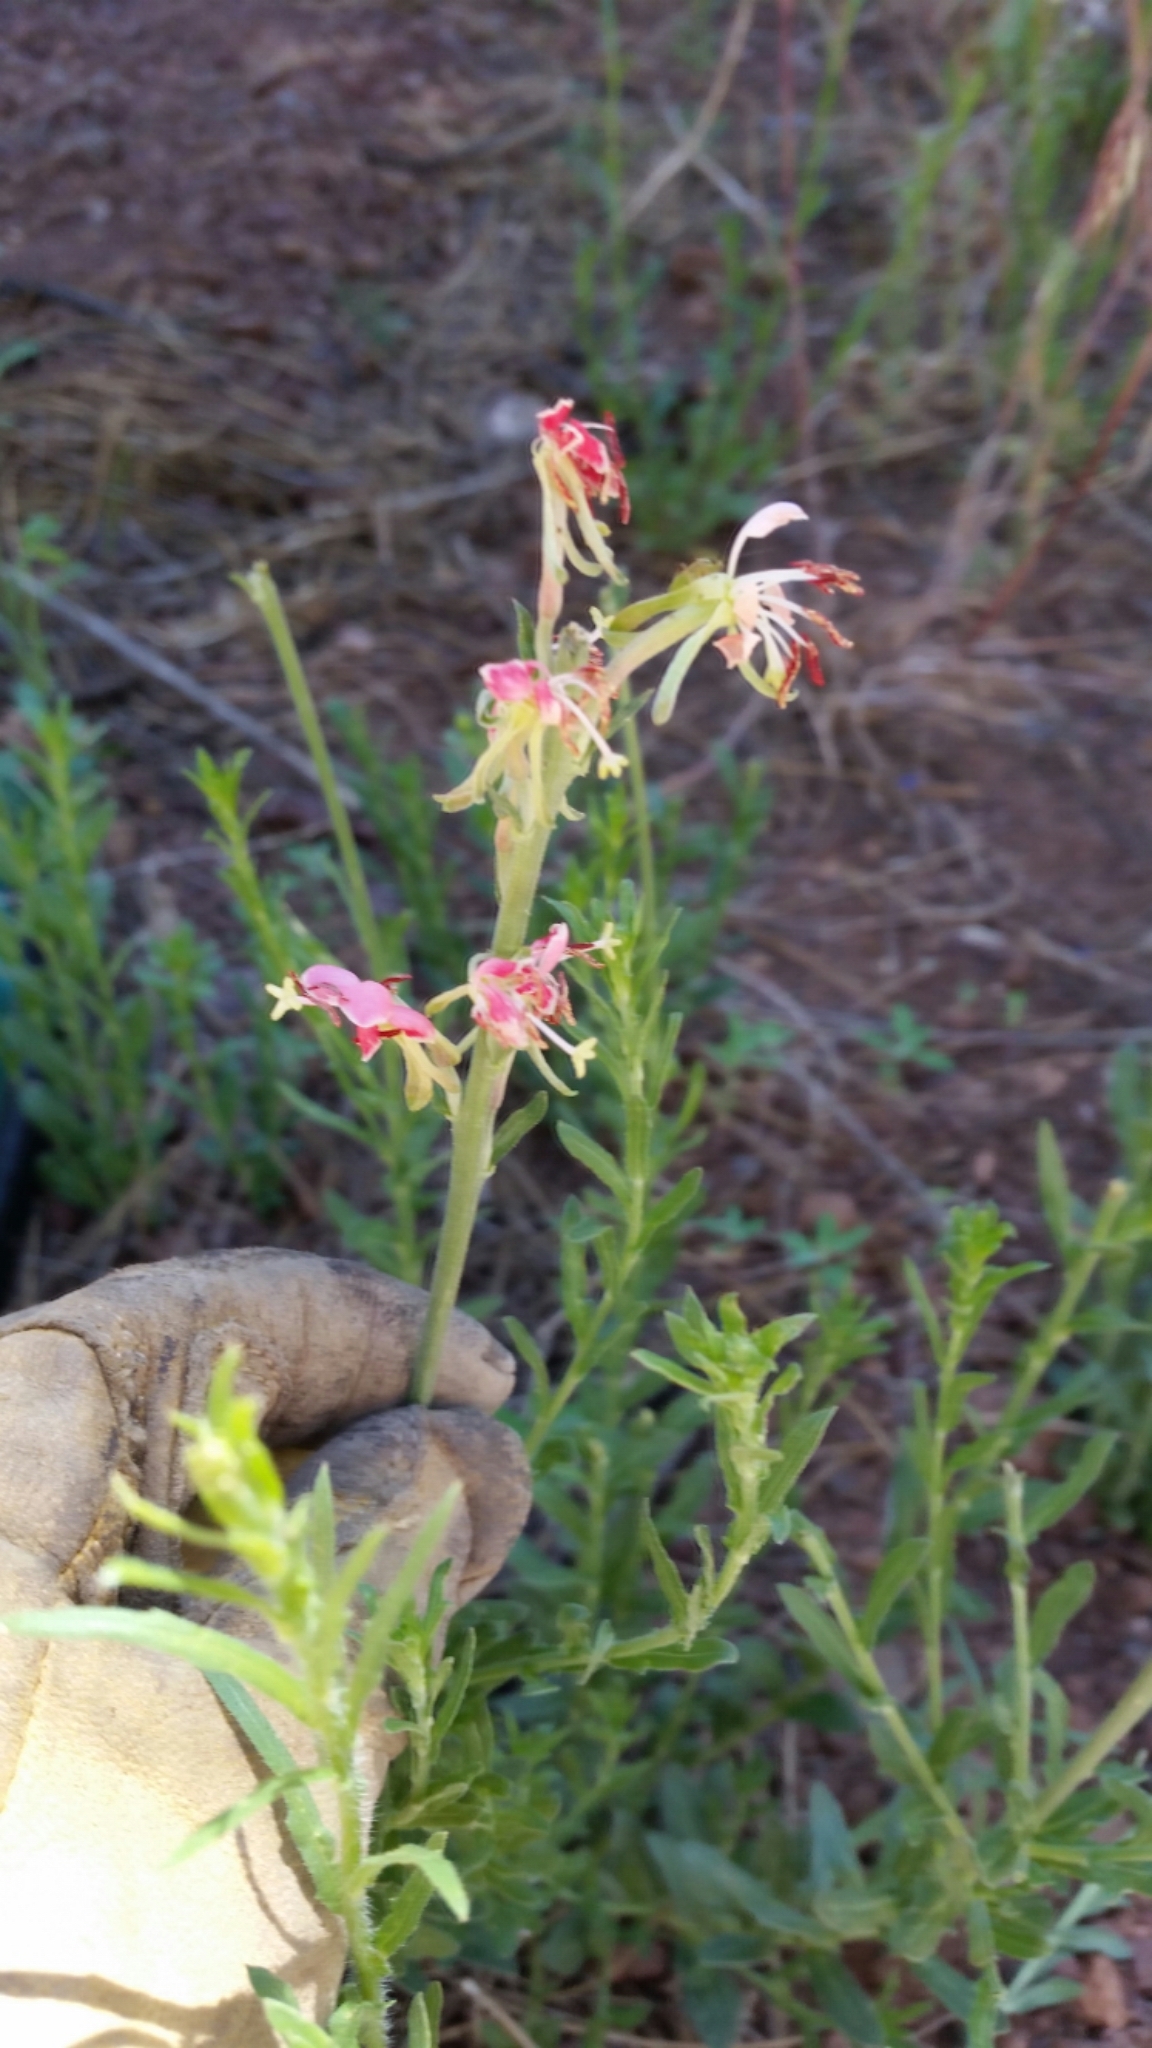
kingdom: Plantae
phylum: Tracheophyta
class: Magnoliopsida
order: Myrtales
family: Onagraceae
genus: Oenothera
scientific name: Oenothera podocarpa
